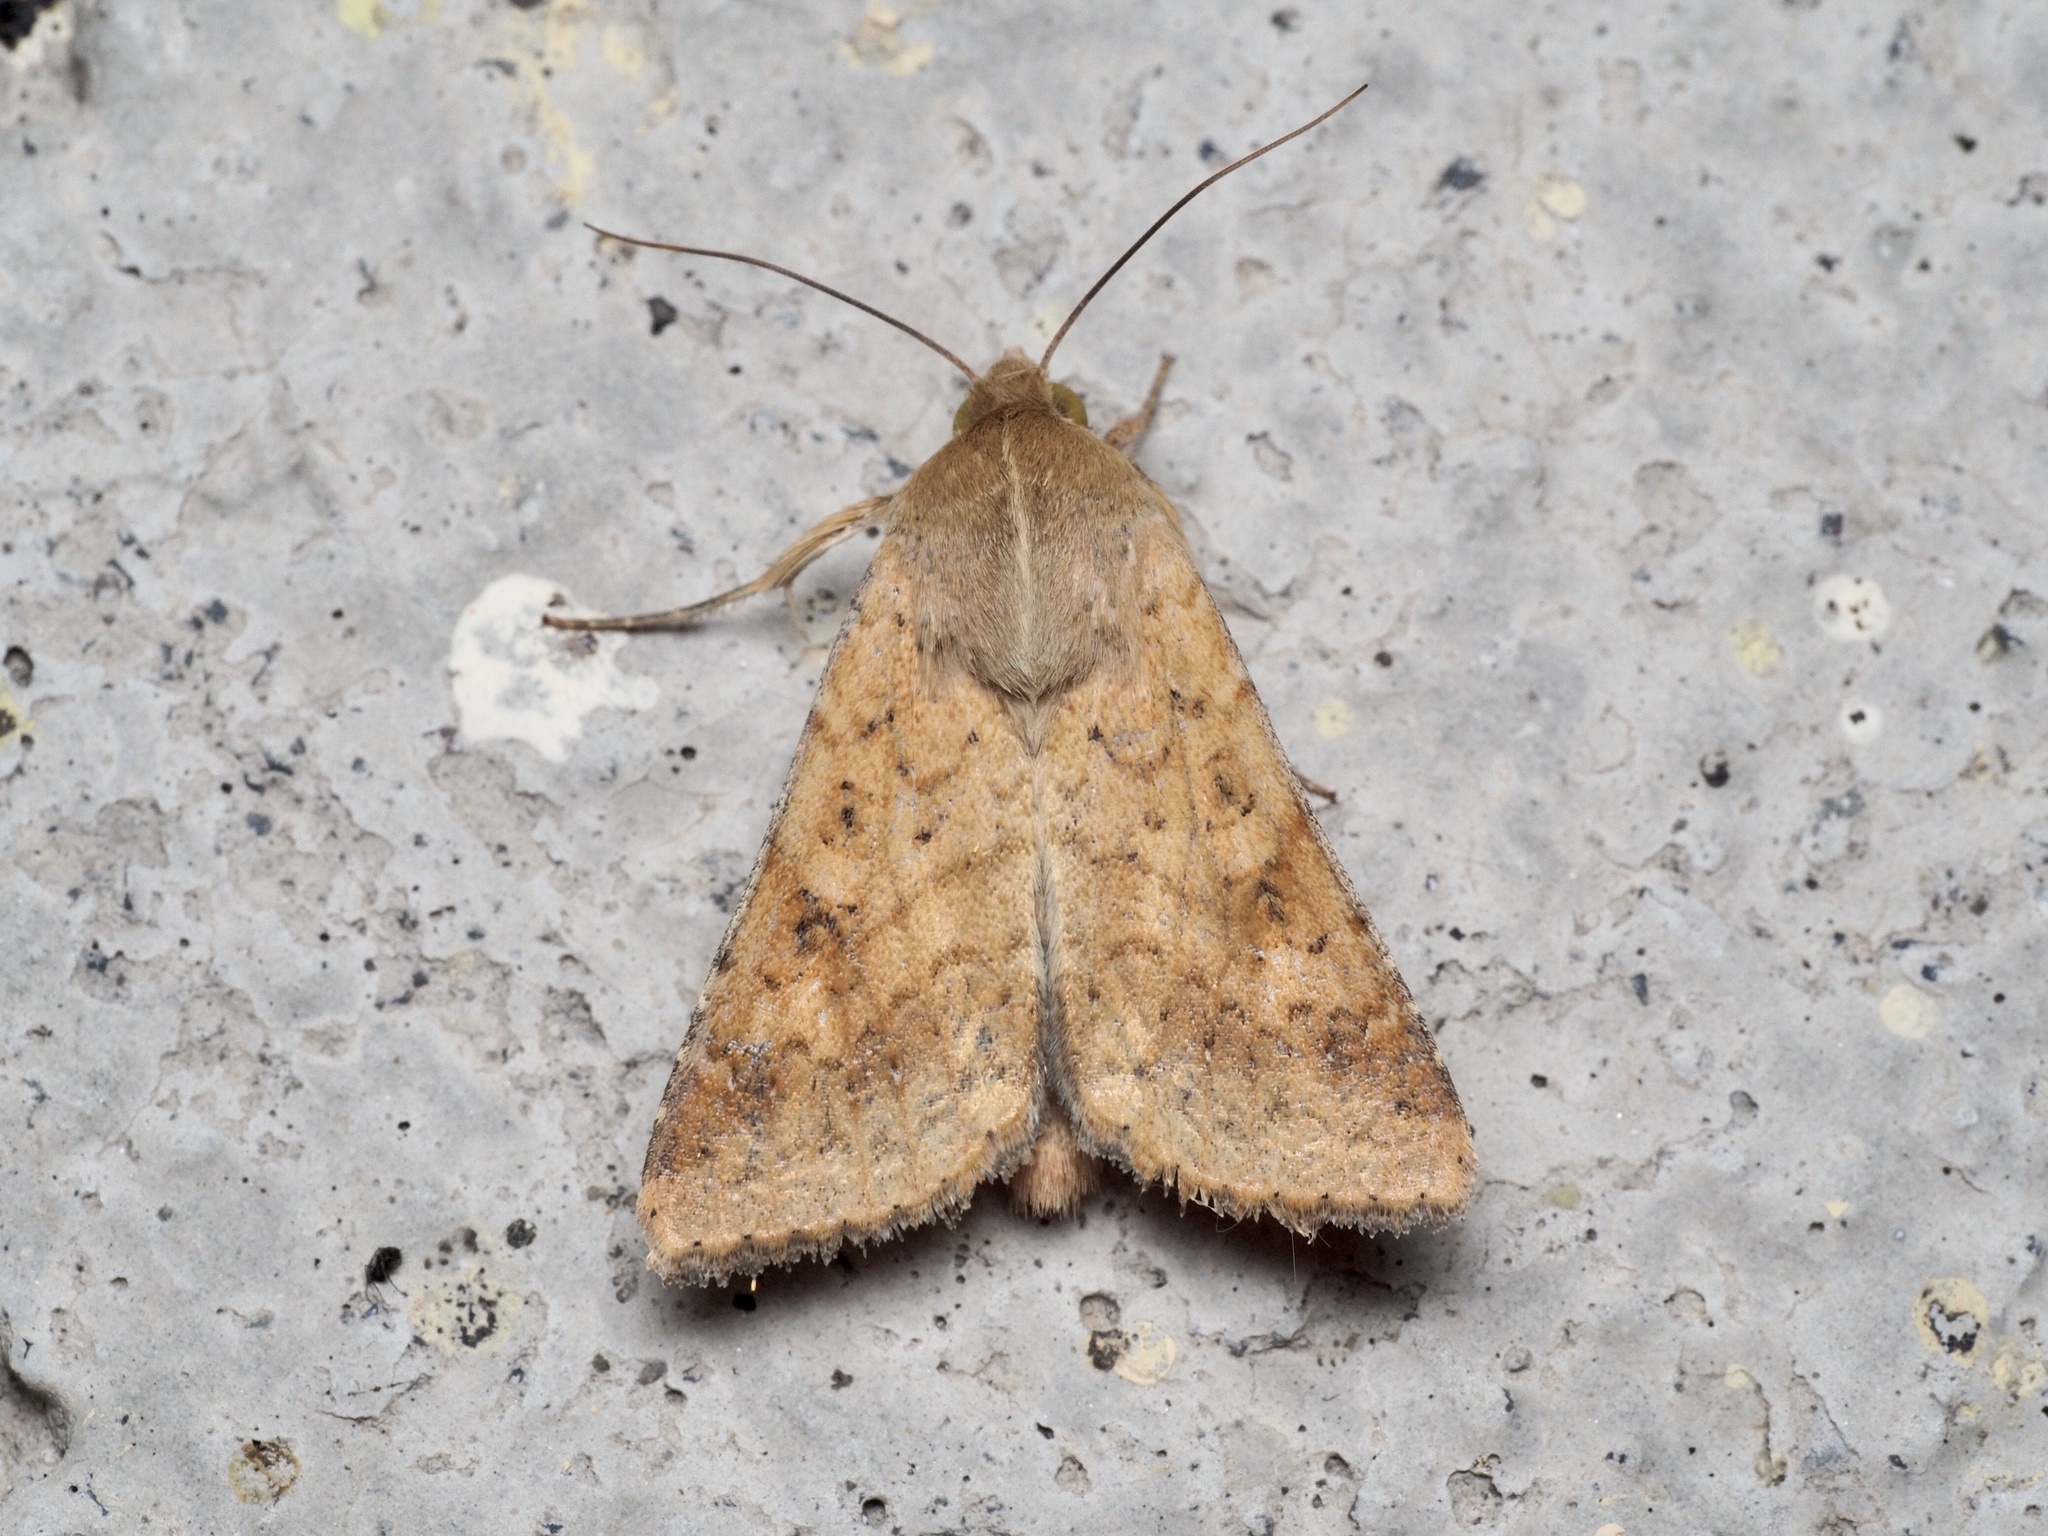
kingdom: Animalia
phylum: Arthropoda
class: Insecta
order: Lepidoptera
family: Noctuidae
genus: Helicoverpa
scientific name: Helicoverpa armigera
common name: Cotton bollworm
